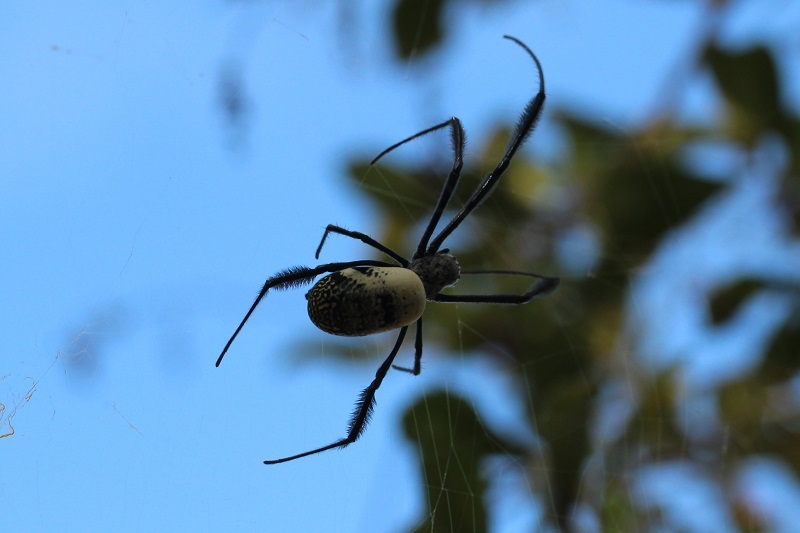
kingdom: Animalia
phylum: Arthropoda
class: Arachnida
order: Araneae
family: Araneidae
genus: Trichonephila
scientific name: Trichonephila fenestrata
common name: Hairy golden orb weaver
